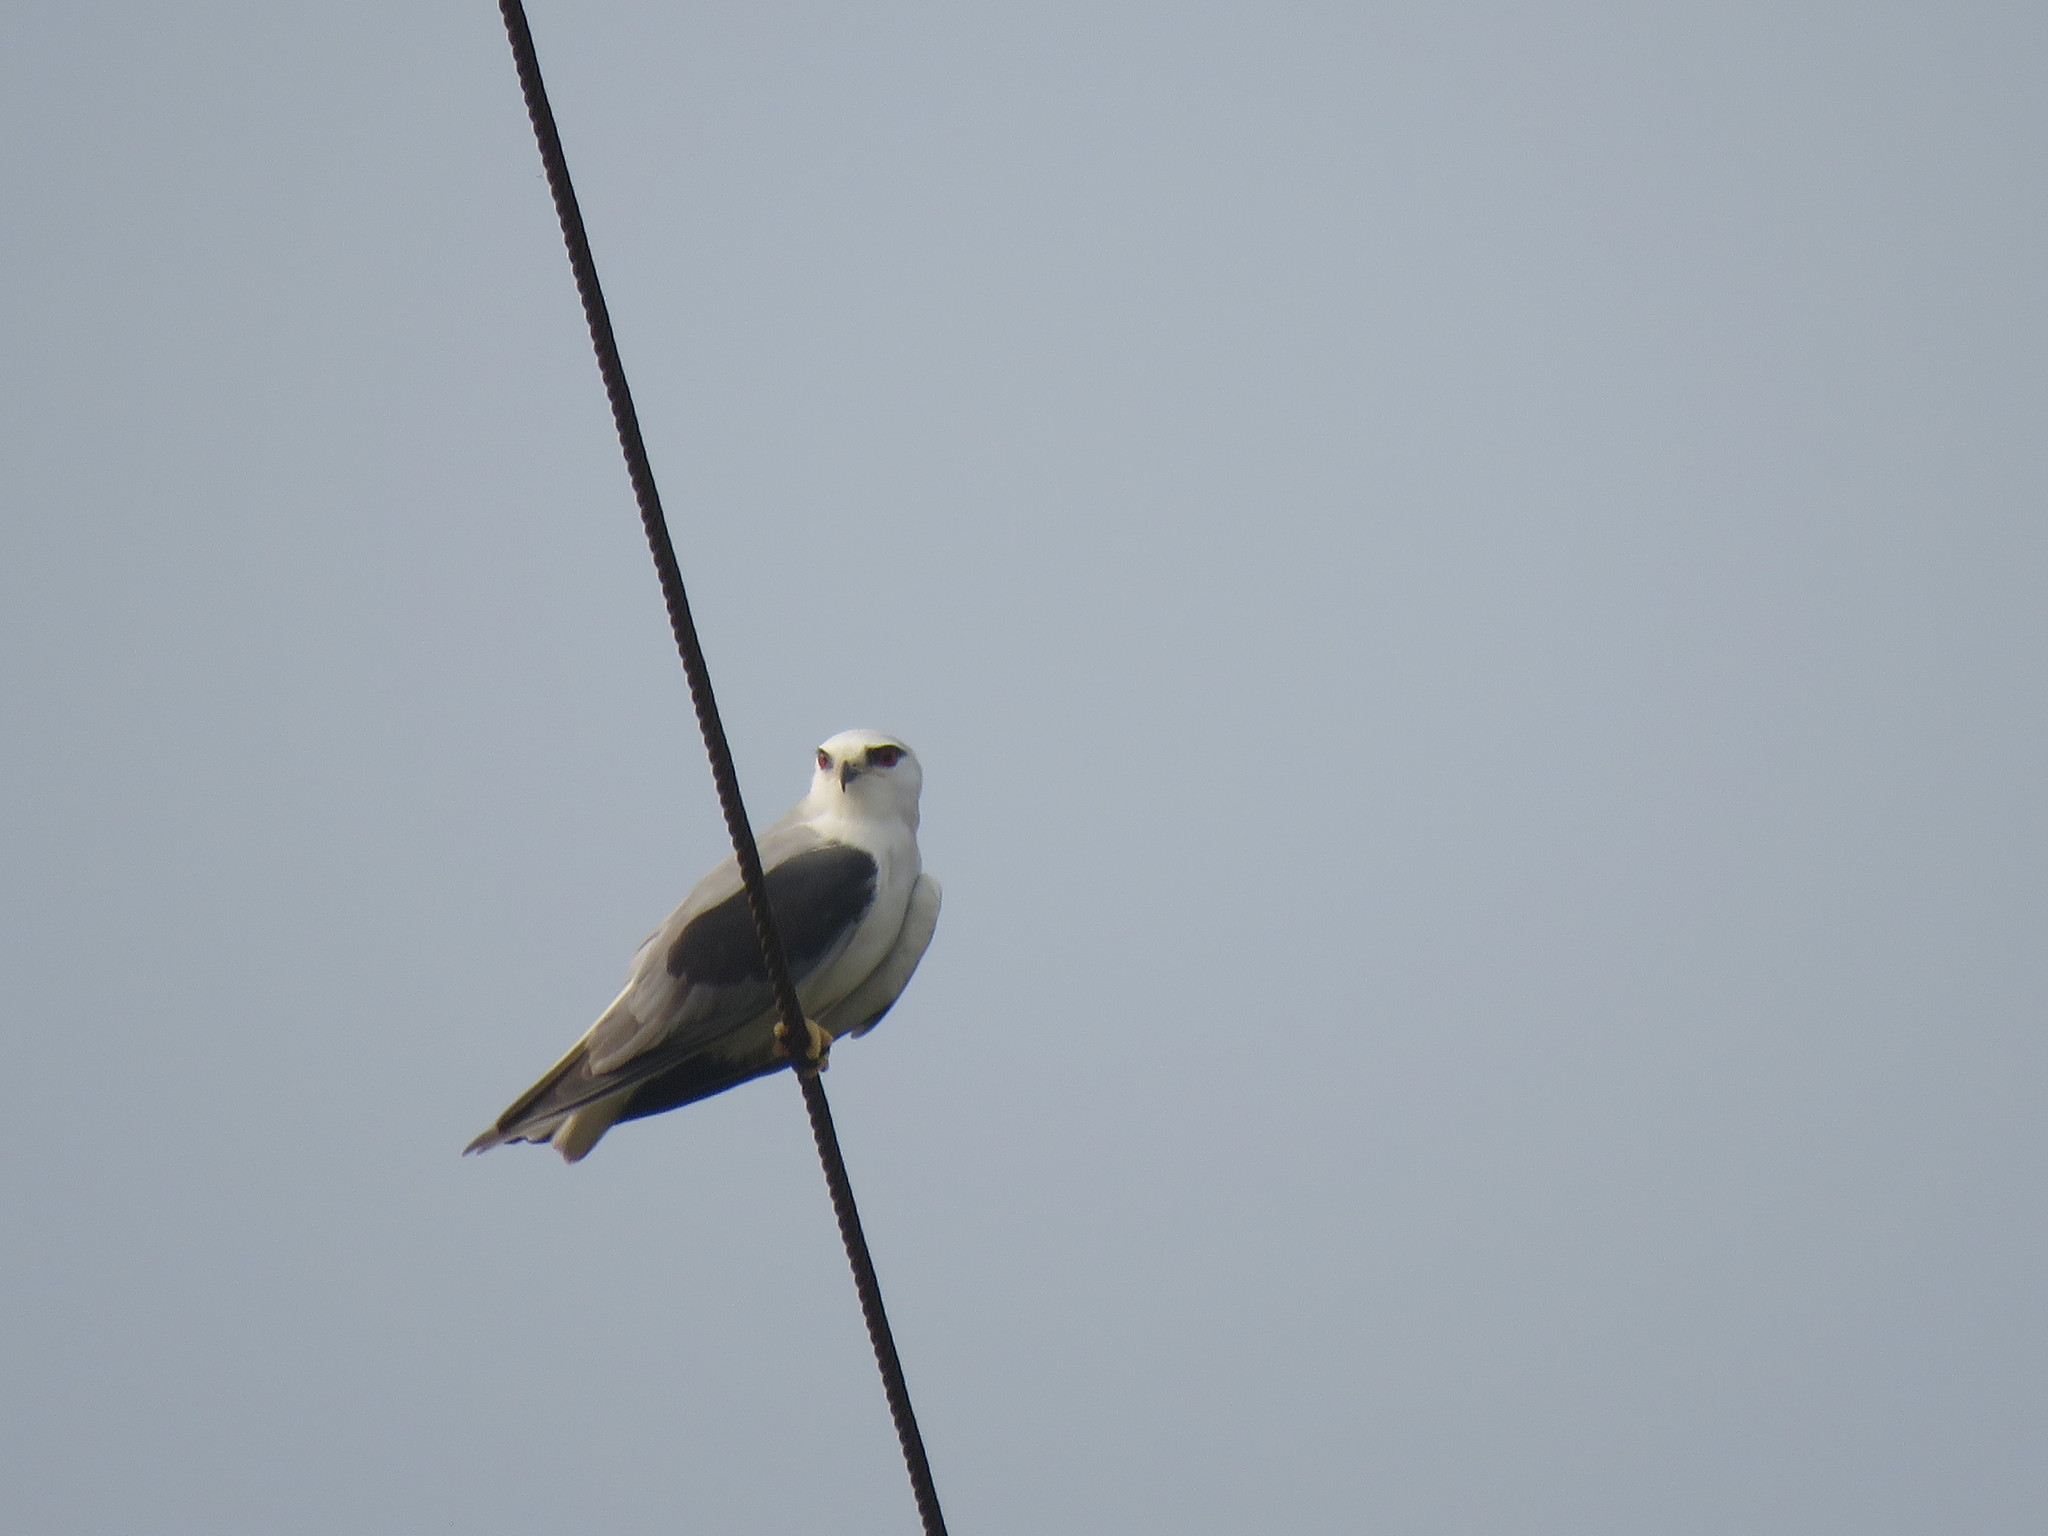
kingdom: Animalia
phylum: Chordata
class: Aves
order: Accipitriformes
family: Accipitridae
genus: Elanus
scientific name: Elanus caeruleus
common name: Black-winged kite
